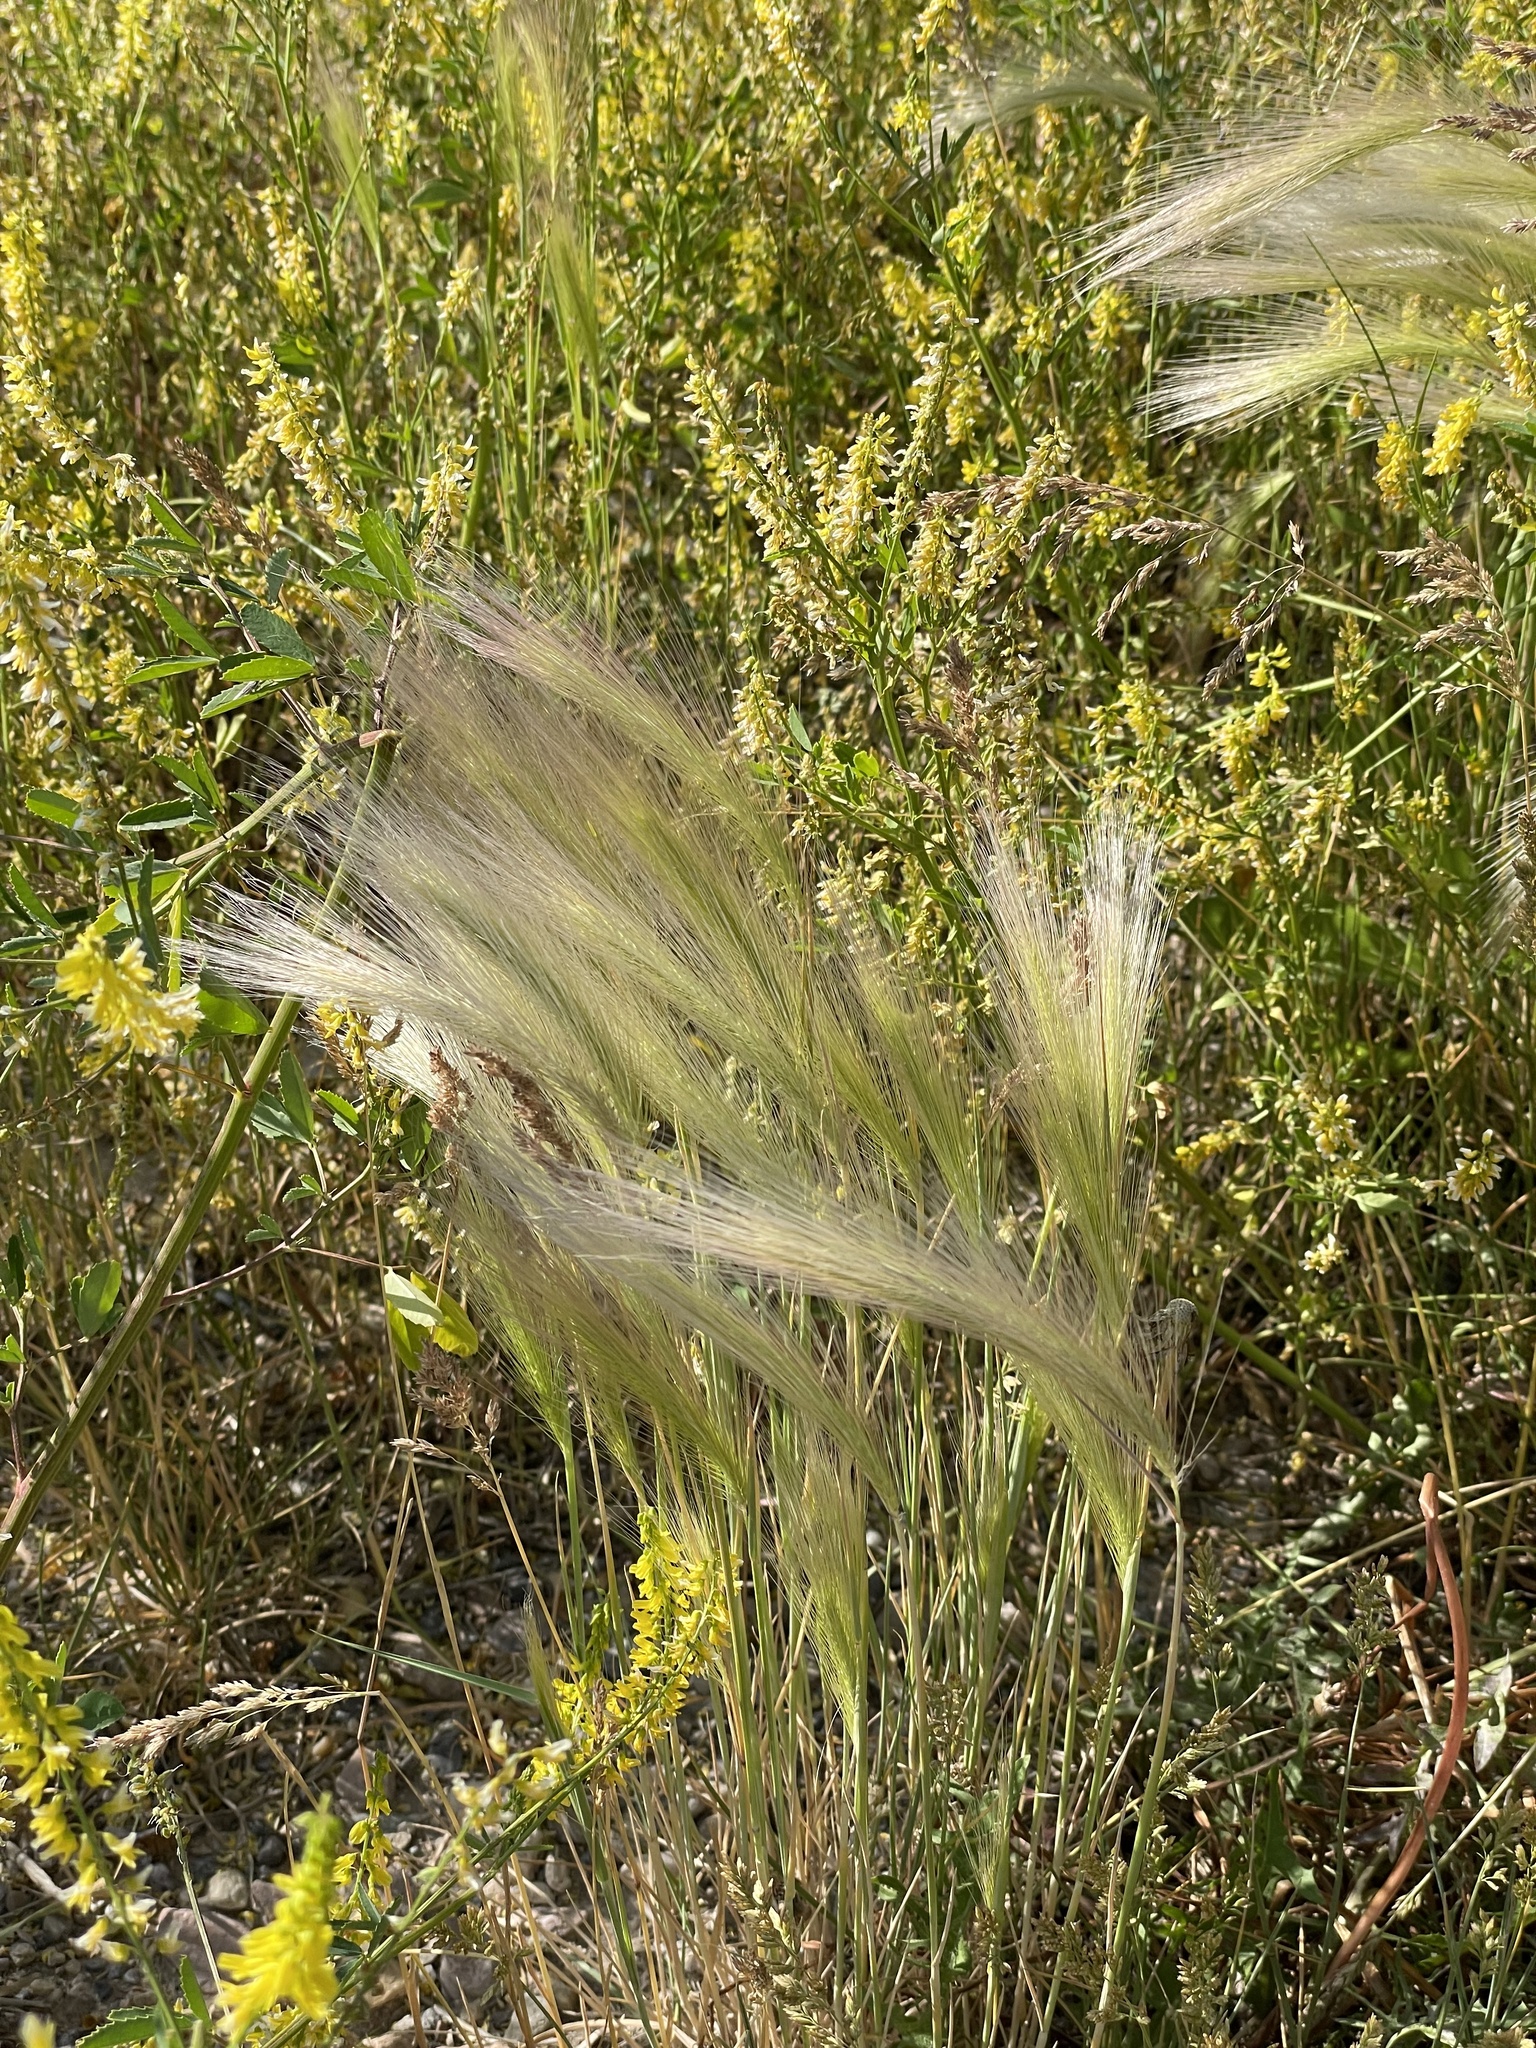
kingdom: Plantae
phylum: Tracheophyta
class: Liliopsida
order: Poales
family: Poaceae
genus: Hordeum
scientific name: Hordeum jubatum
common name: Foxtail barley
